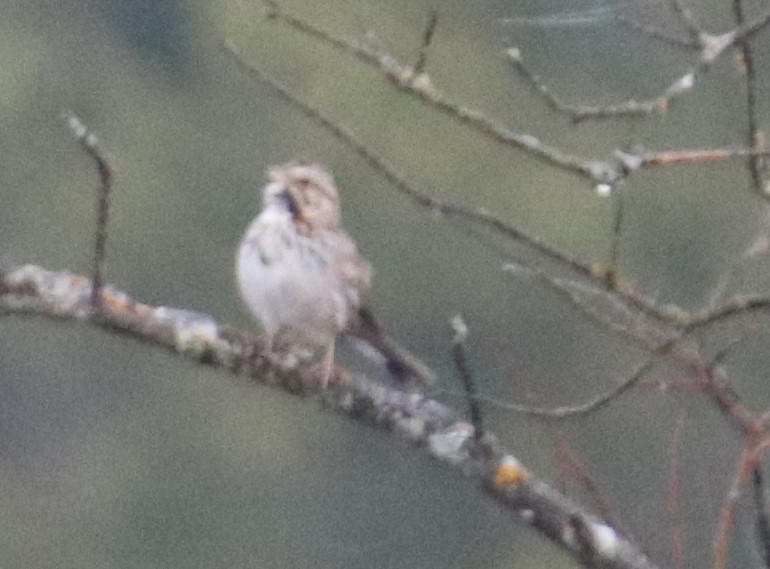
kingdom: Animalia
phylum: Chordata
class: Aves
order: Passeriformes
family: Passerellidae
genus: Melospiza
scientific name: Melospiza melodia
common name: Song sparrow
